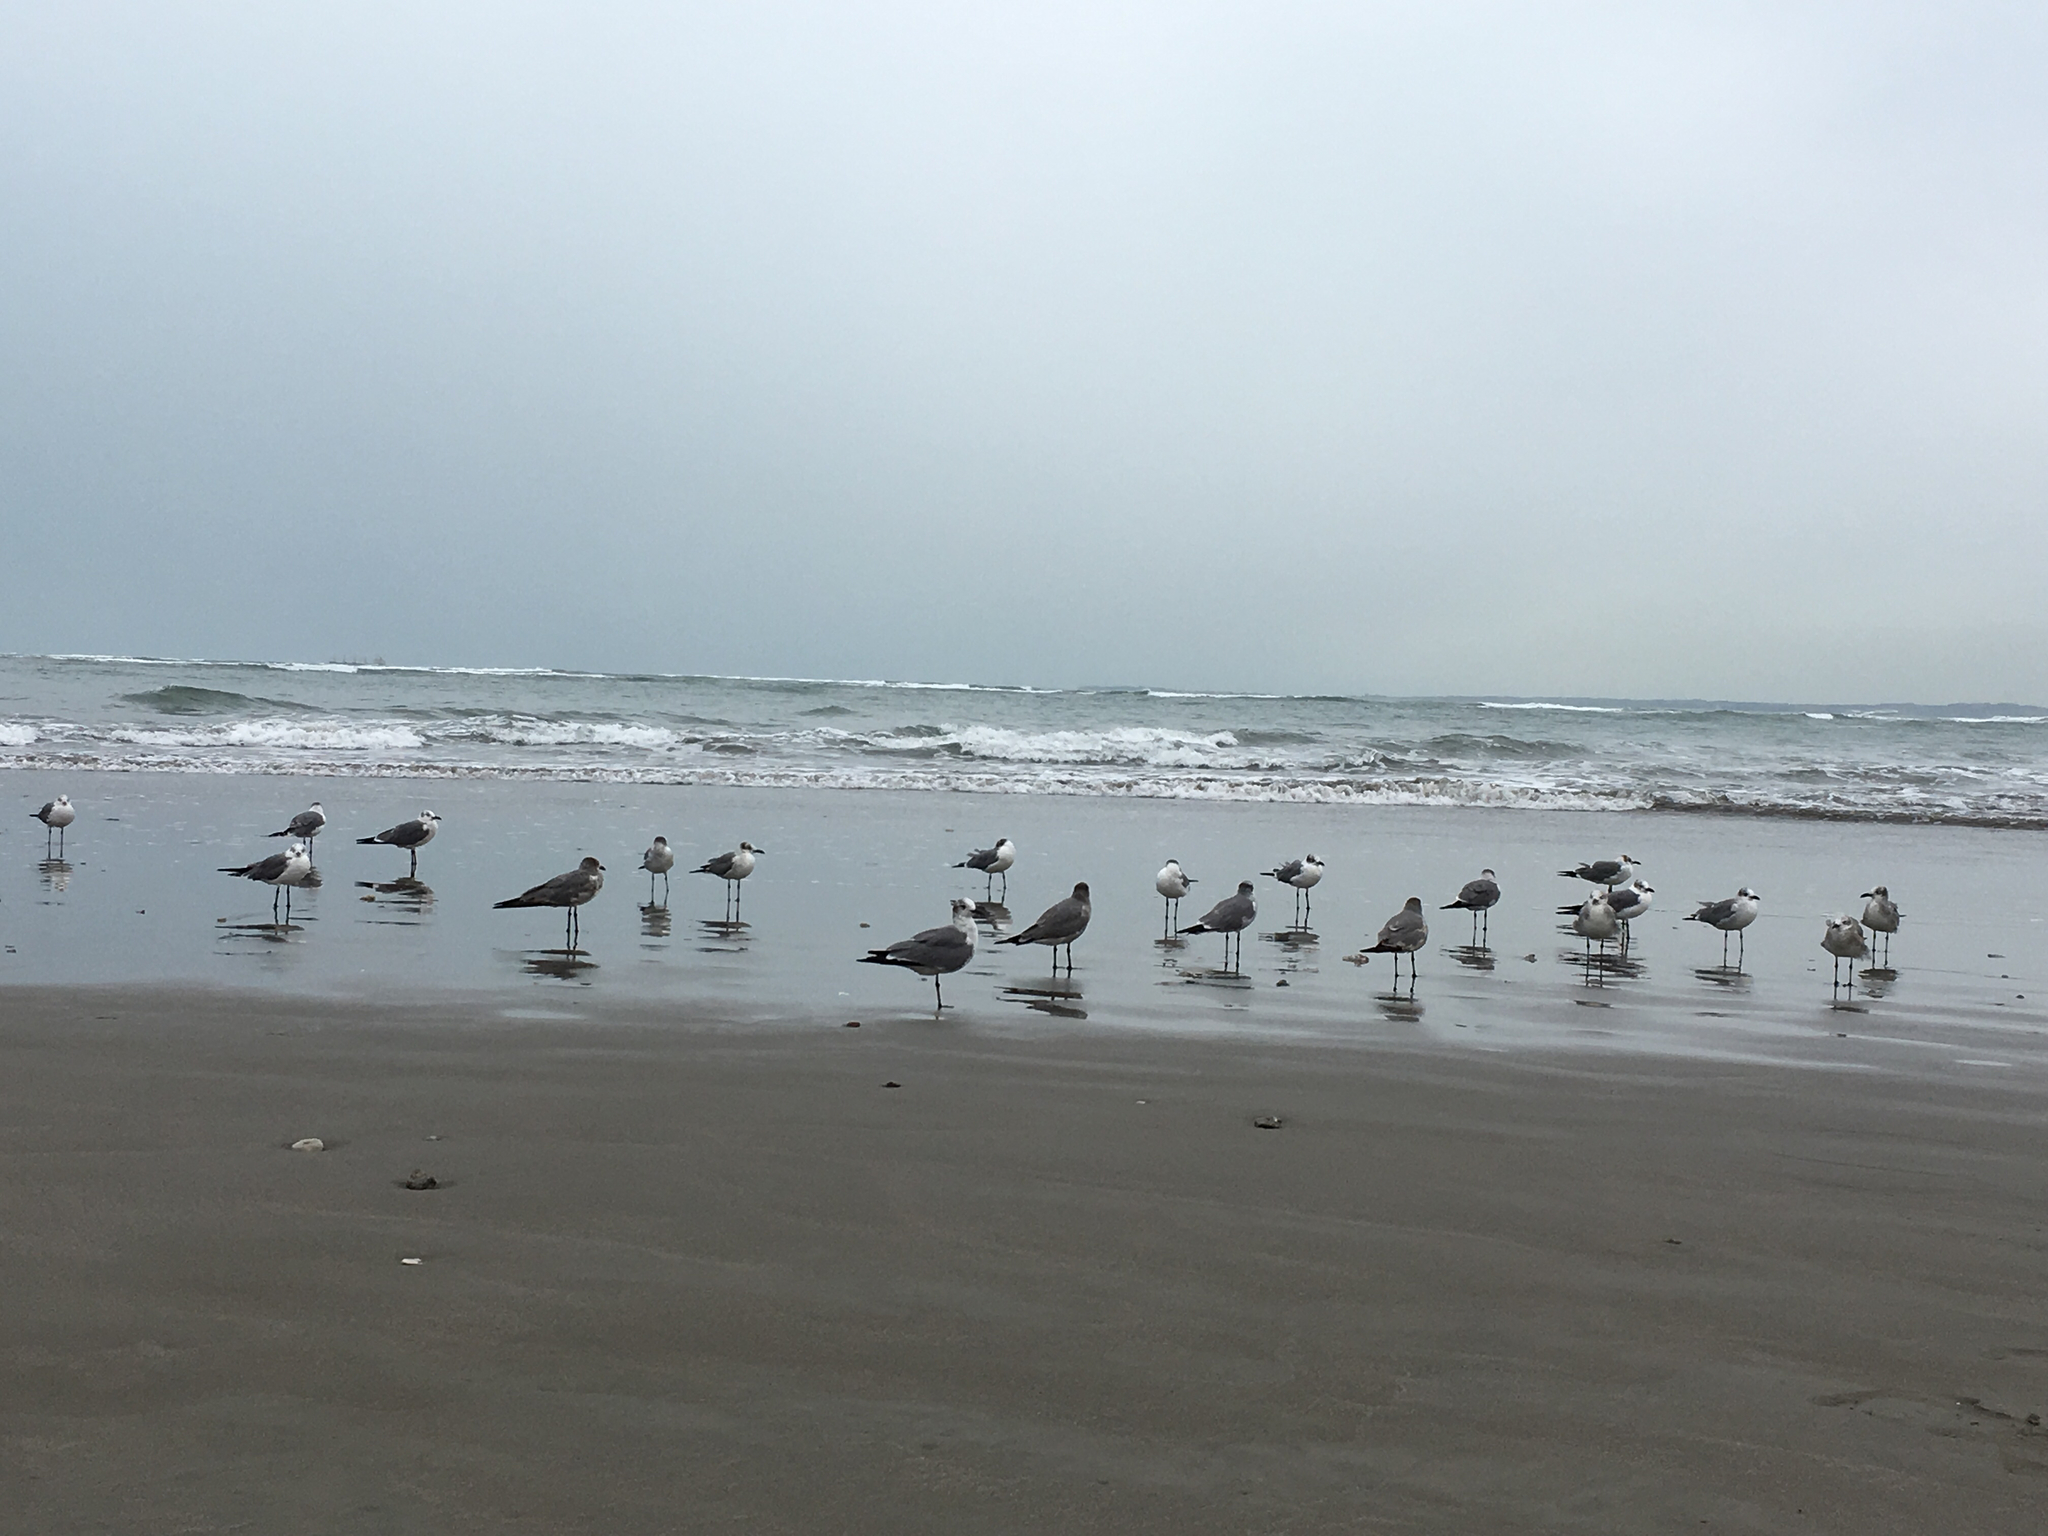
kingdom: Animalia
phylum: Chordata
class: Aves
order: Charadriiformes
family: Laridae
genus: Leucophaeus
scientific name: Leucophaeus atricilla
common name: Laughing gull
